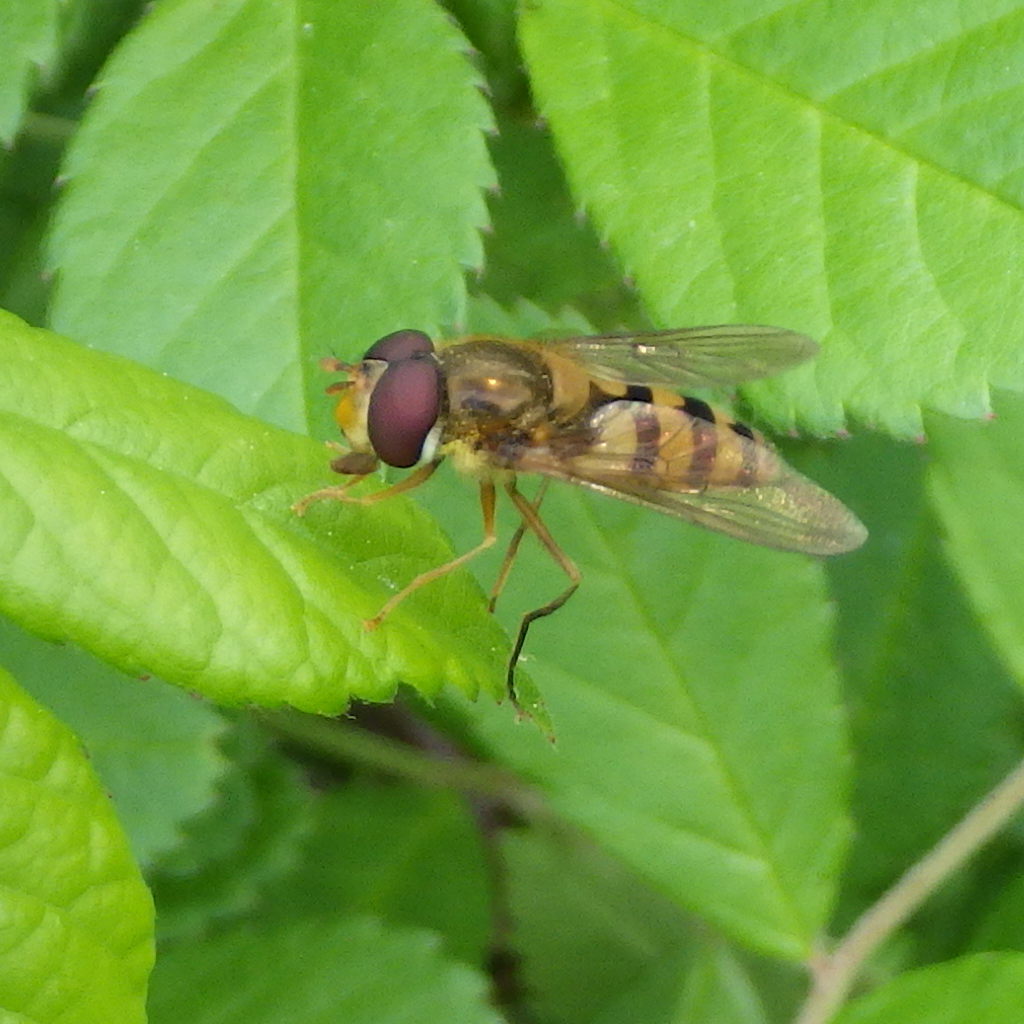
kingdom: Animalia
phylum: Arthropoda
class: Insecta
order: Diptera
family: Syrphidae
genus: Epistrophe
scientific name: Epistrophe xanthostoma
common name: Emarginate smoothtail
